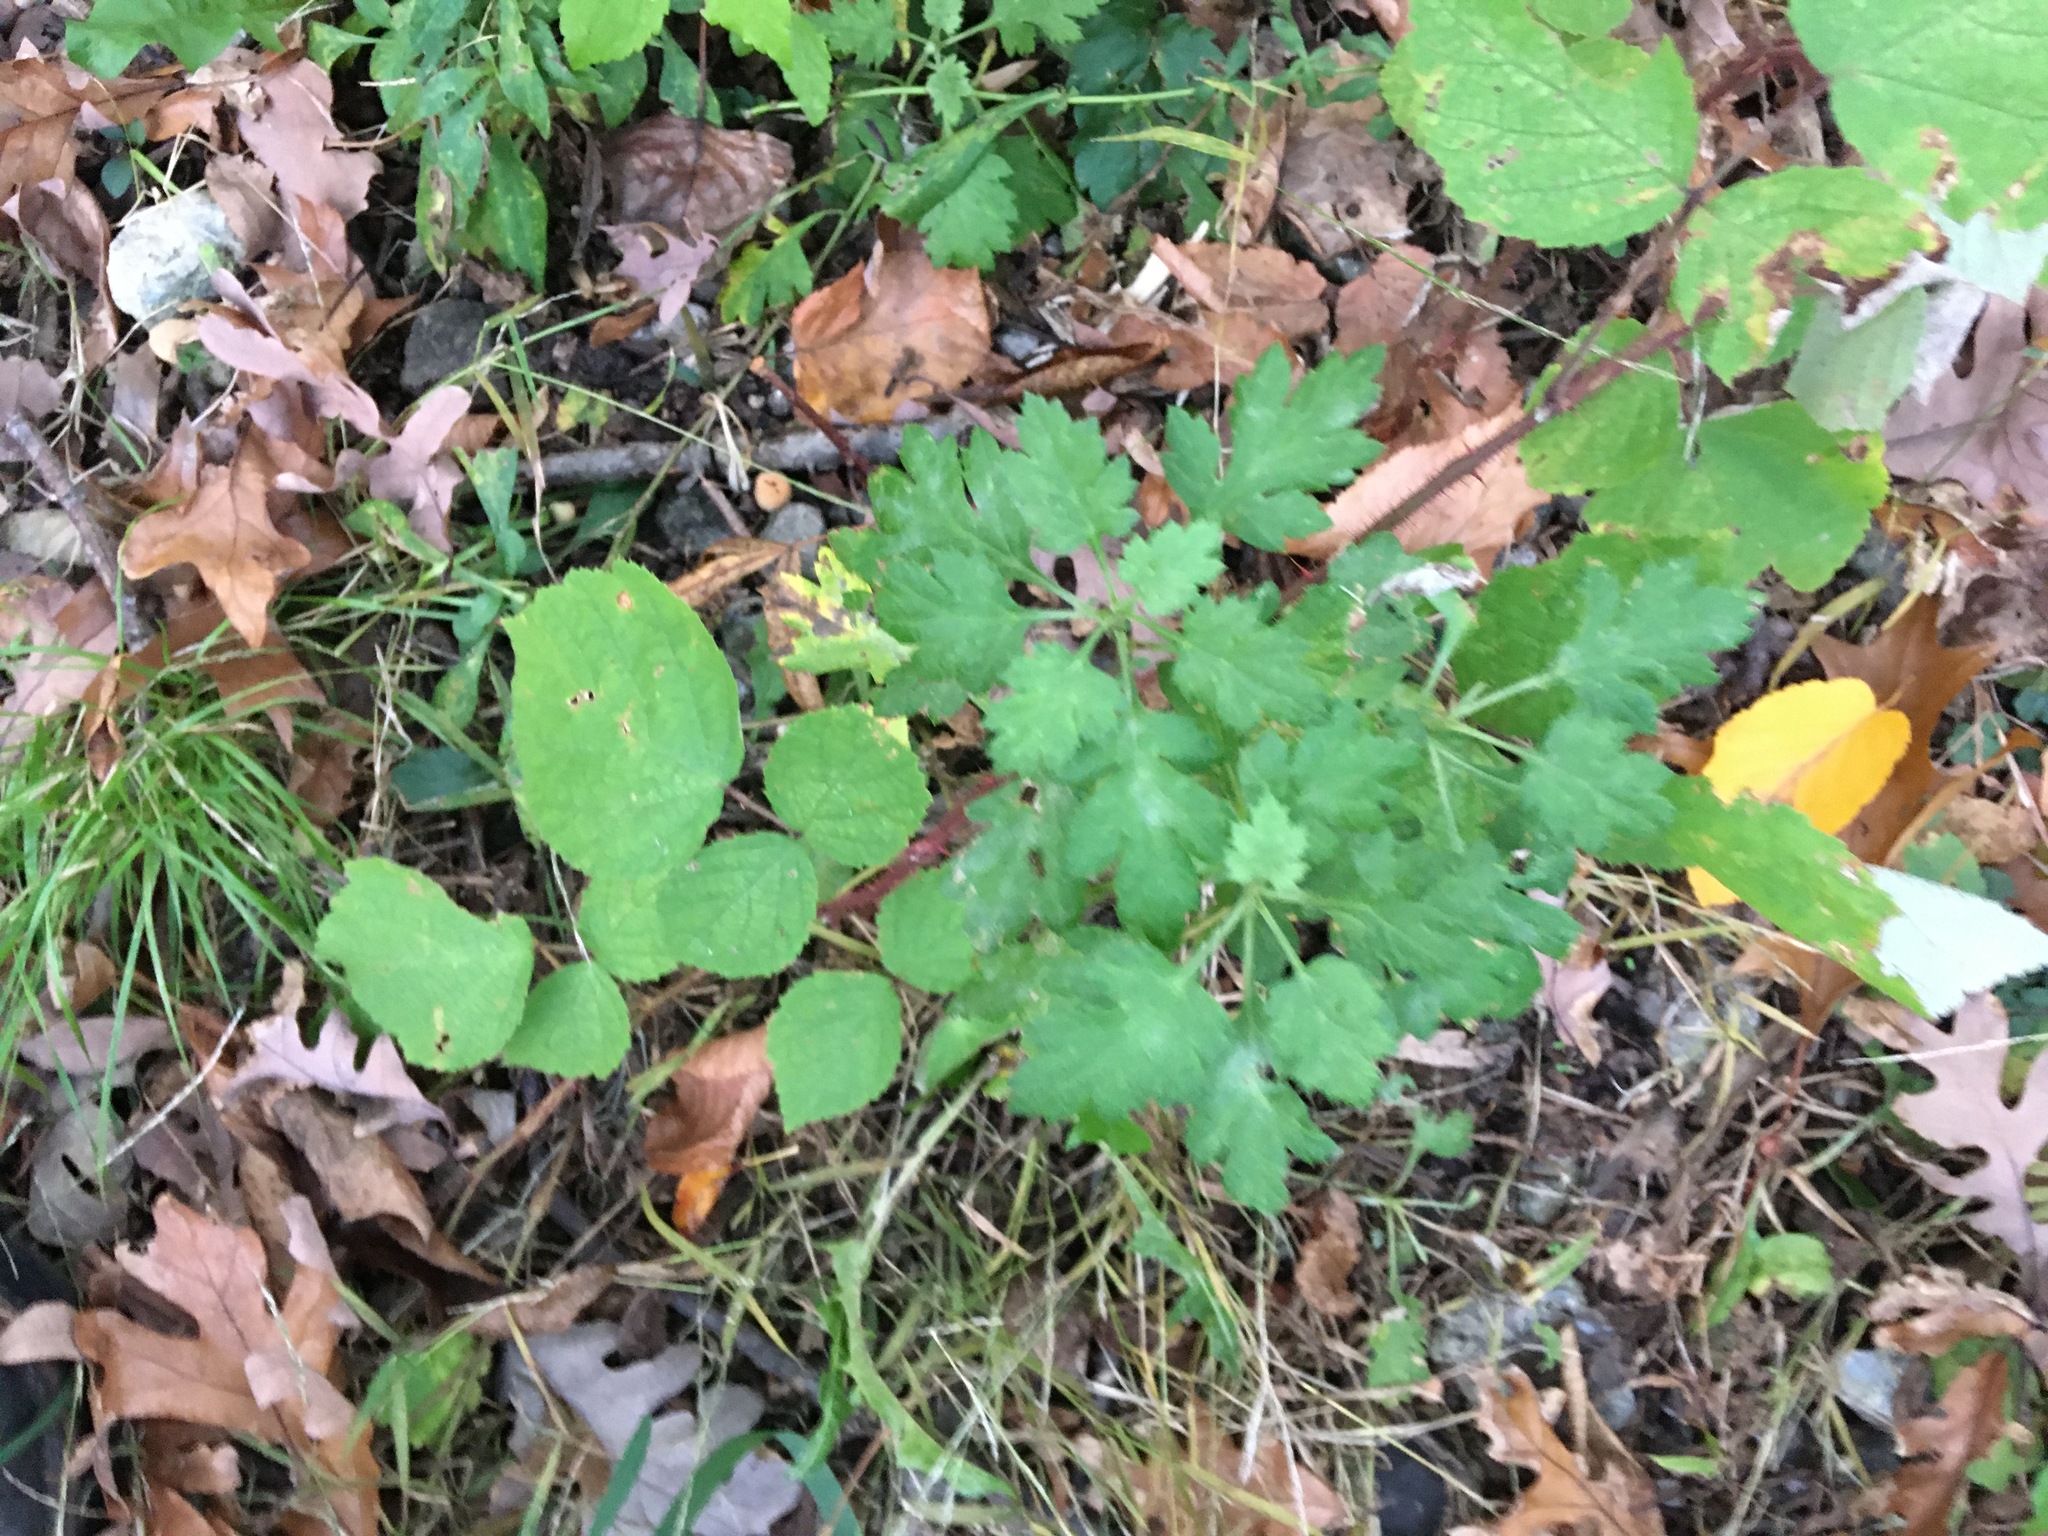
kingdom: Plantae
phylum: Tracheophyta
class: Magnoliopsida
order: Asterales
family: Asteraceae
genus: Artemisia
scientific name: Artemisia vulgaris
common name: Mugwort
